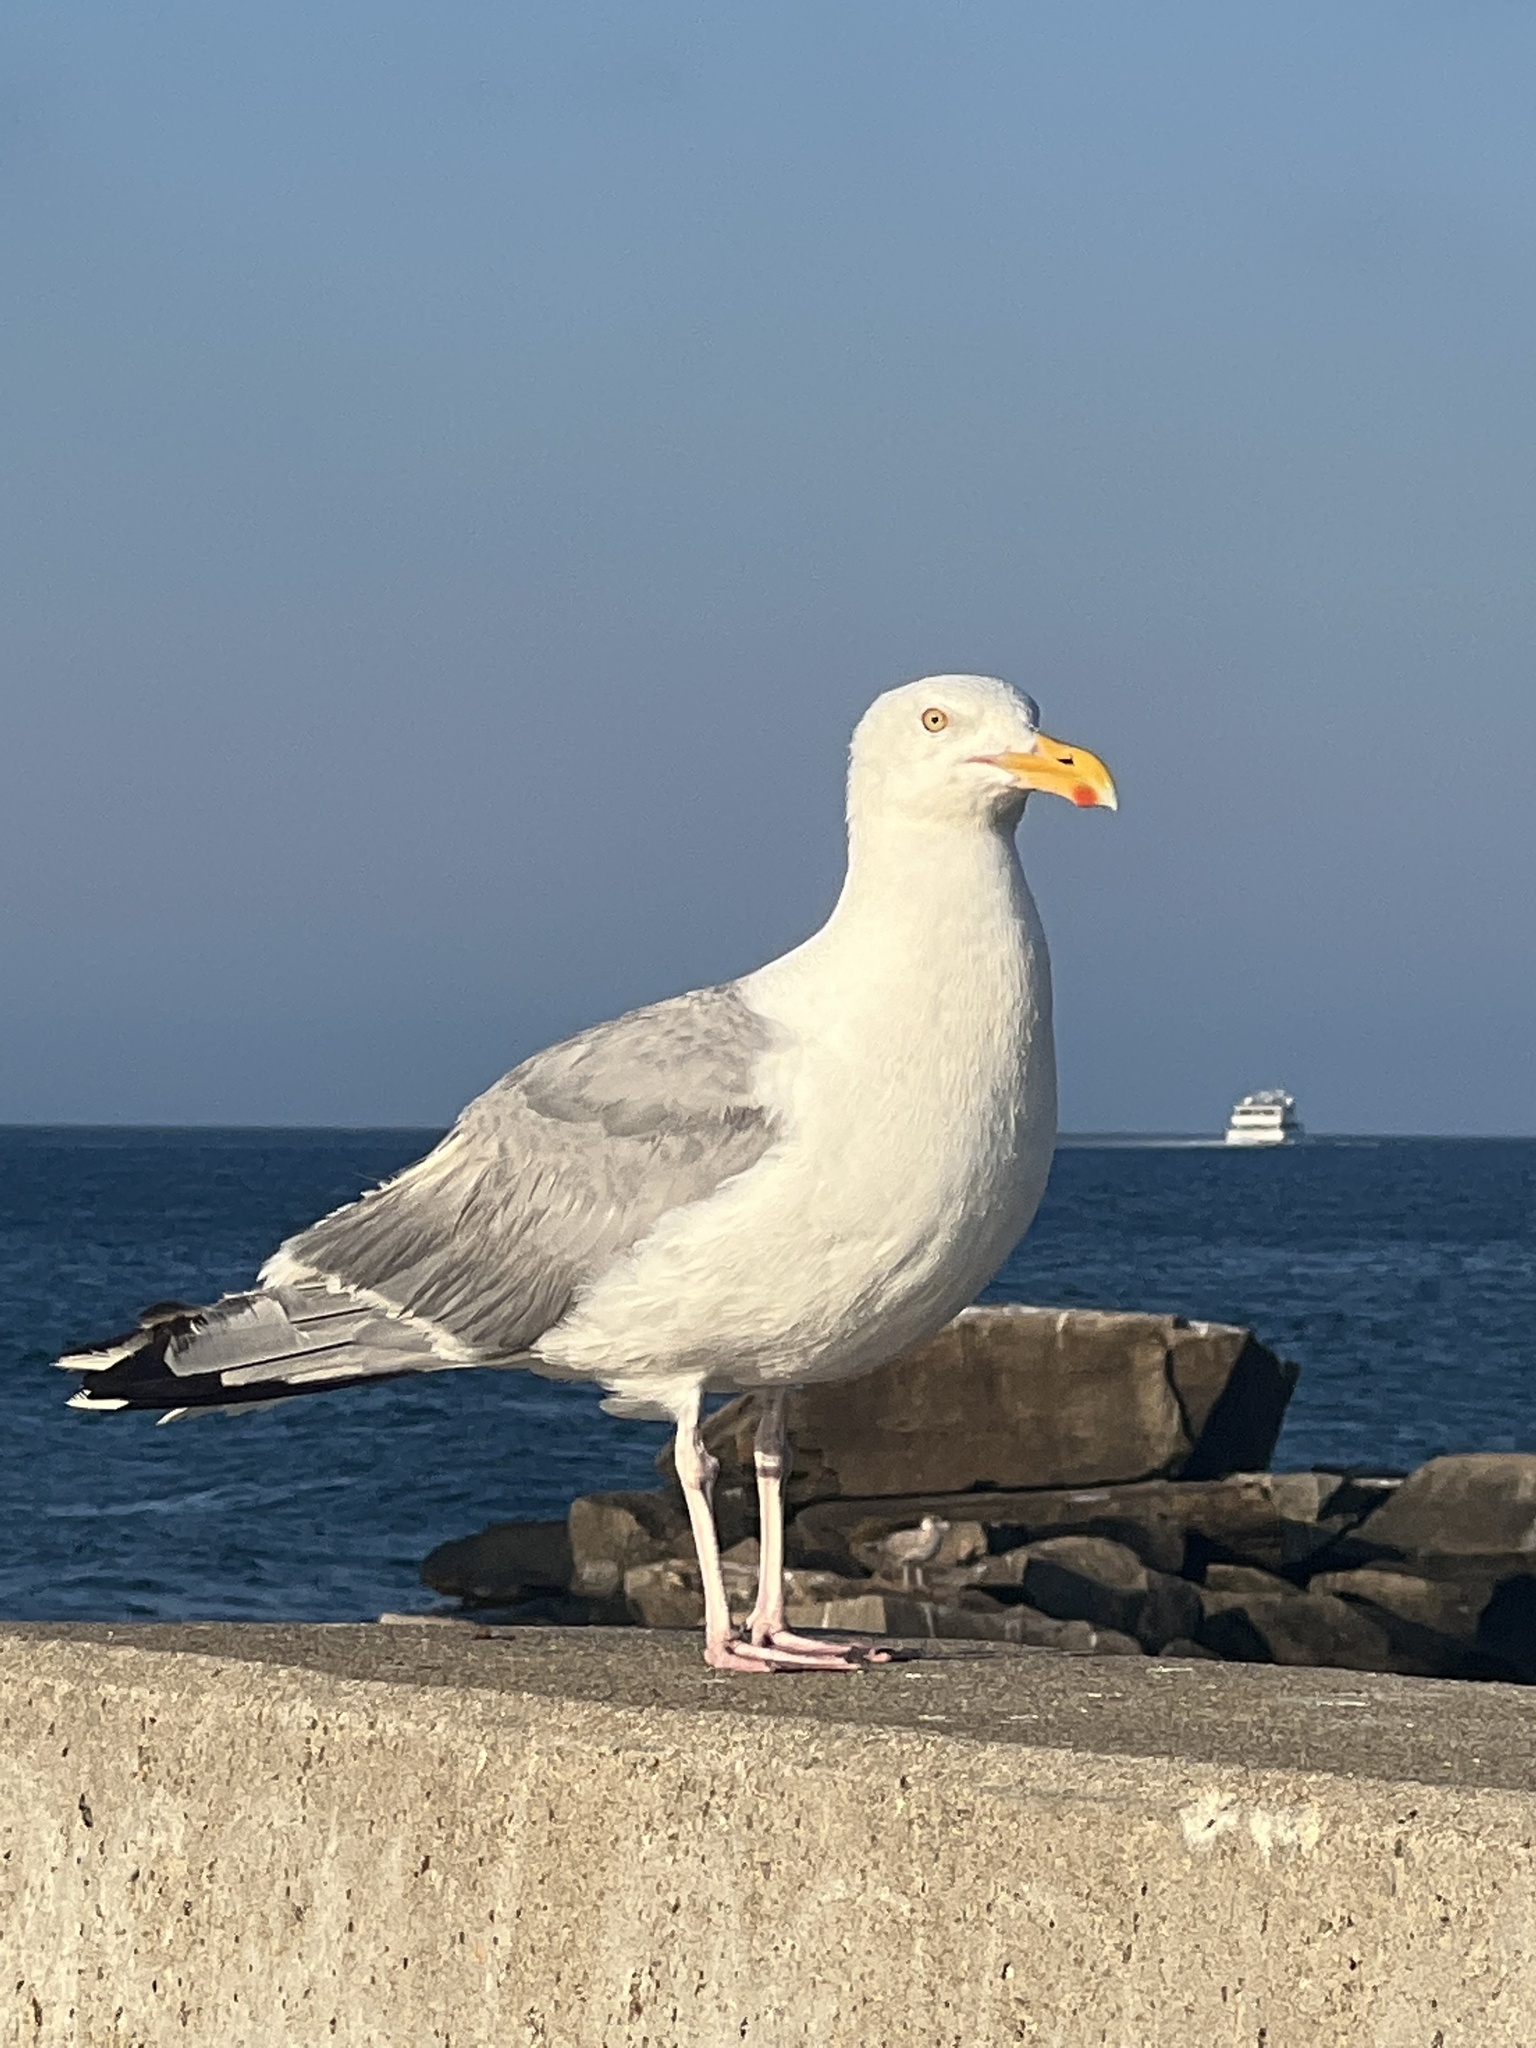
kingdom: Animalia
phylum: Chordata
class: Aves
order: Charadriiformes
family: Laridae
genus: Larus
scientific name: Larus argentatus
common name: Herring gull
